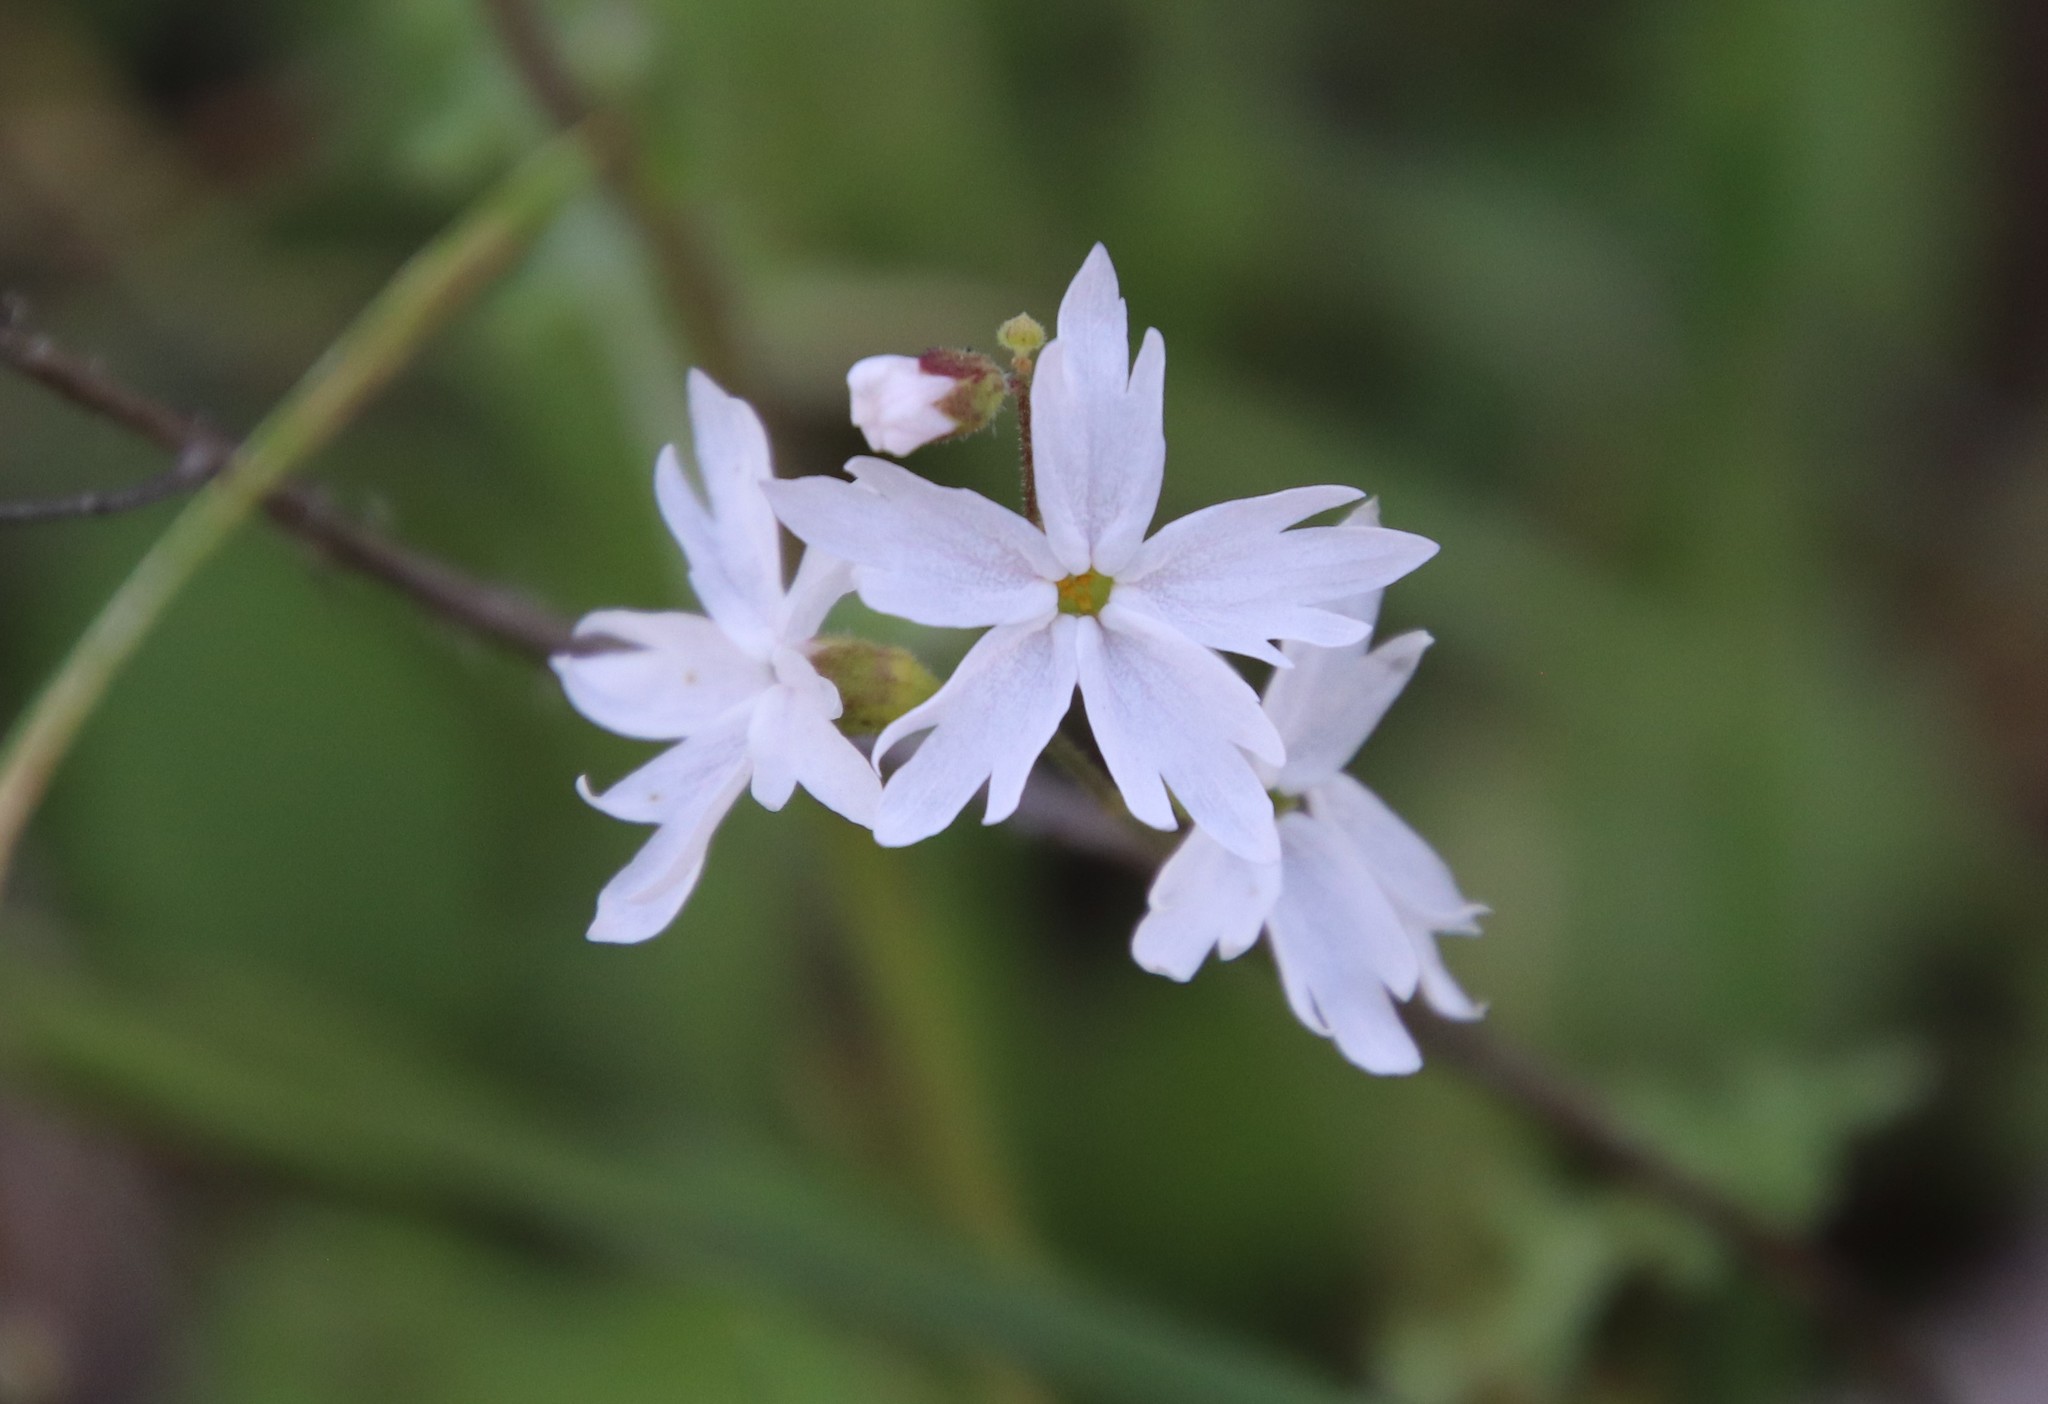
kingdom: Plantae
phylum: Tracheophyta
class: Magnoliopsida
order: Saxifragales
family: Saxifragaceae
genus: Lithophragma
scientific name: Lithophragma affine
